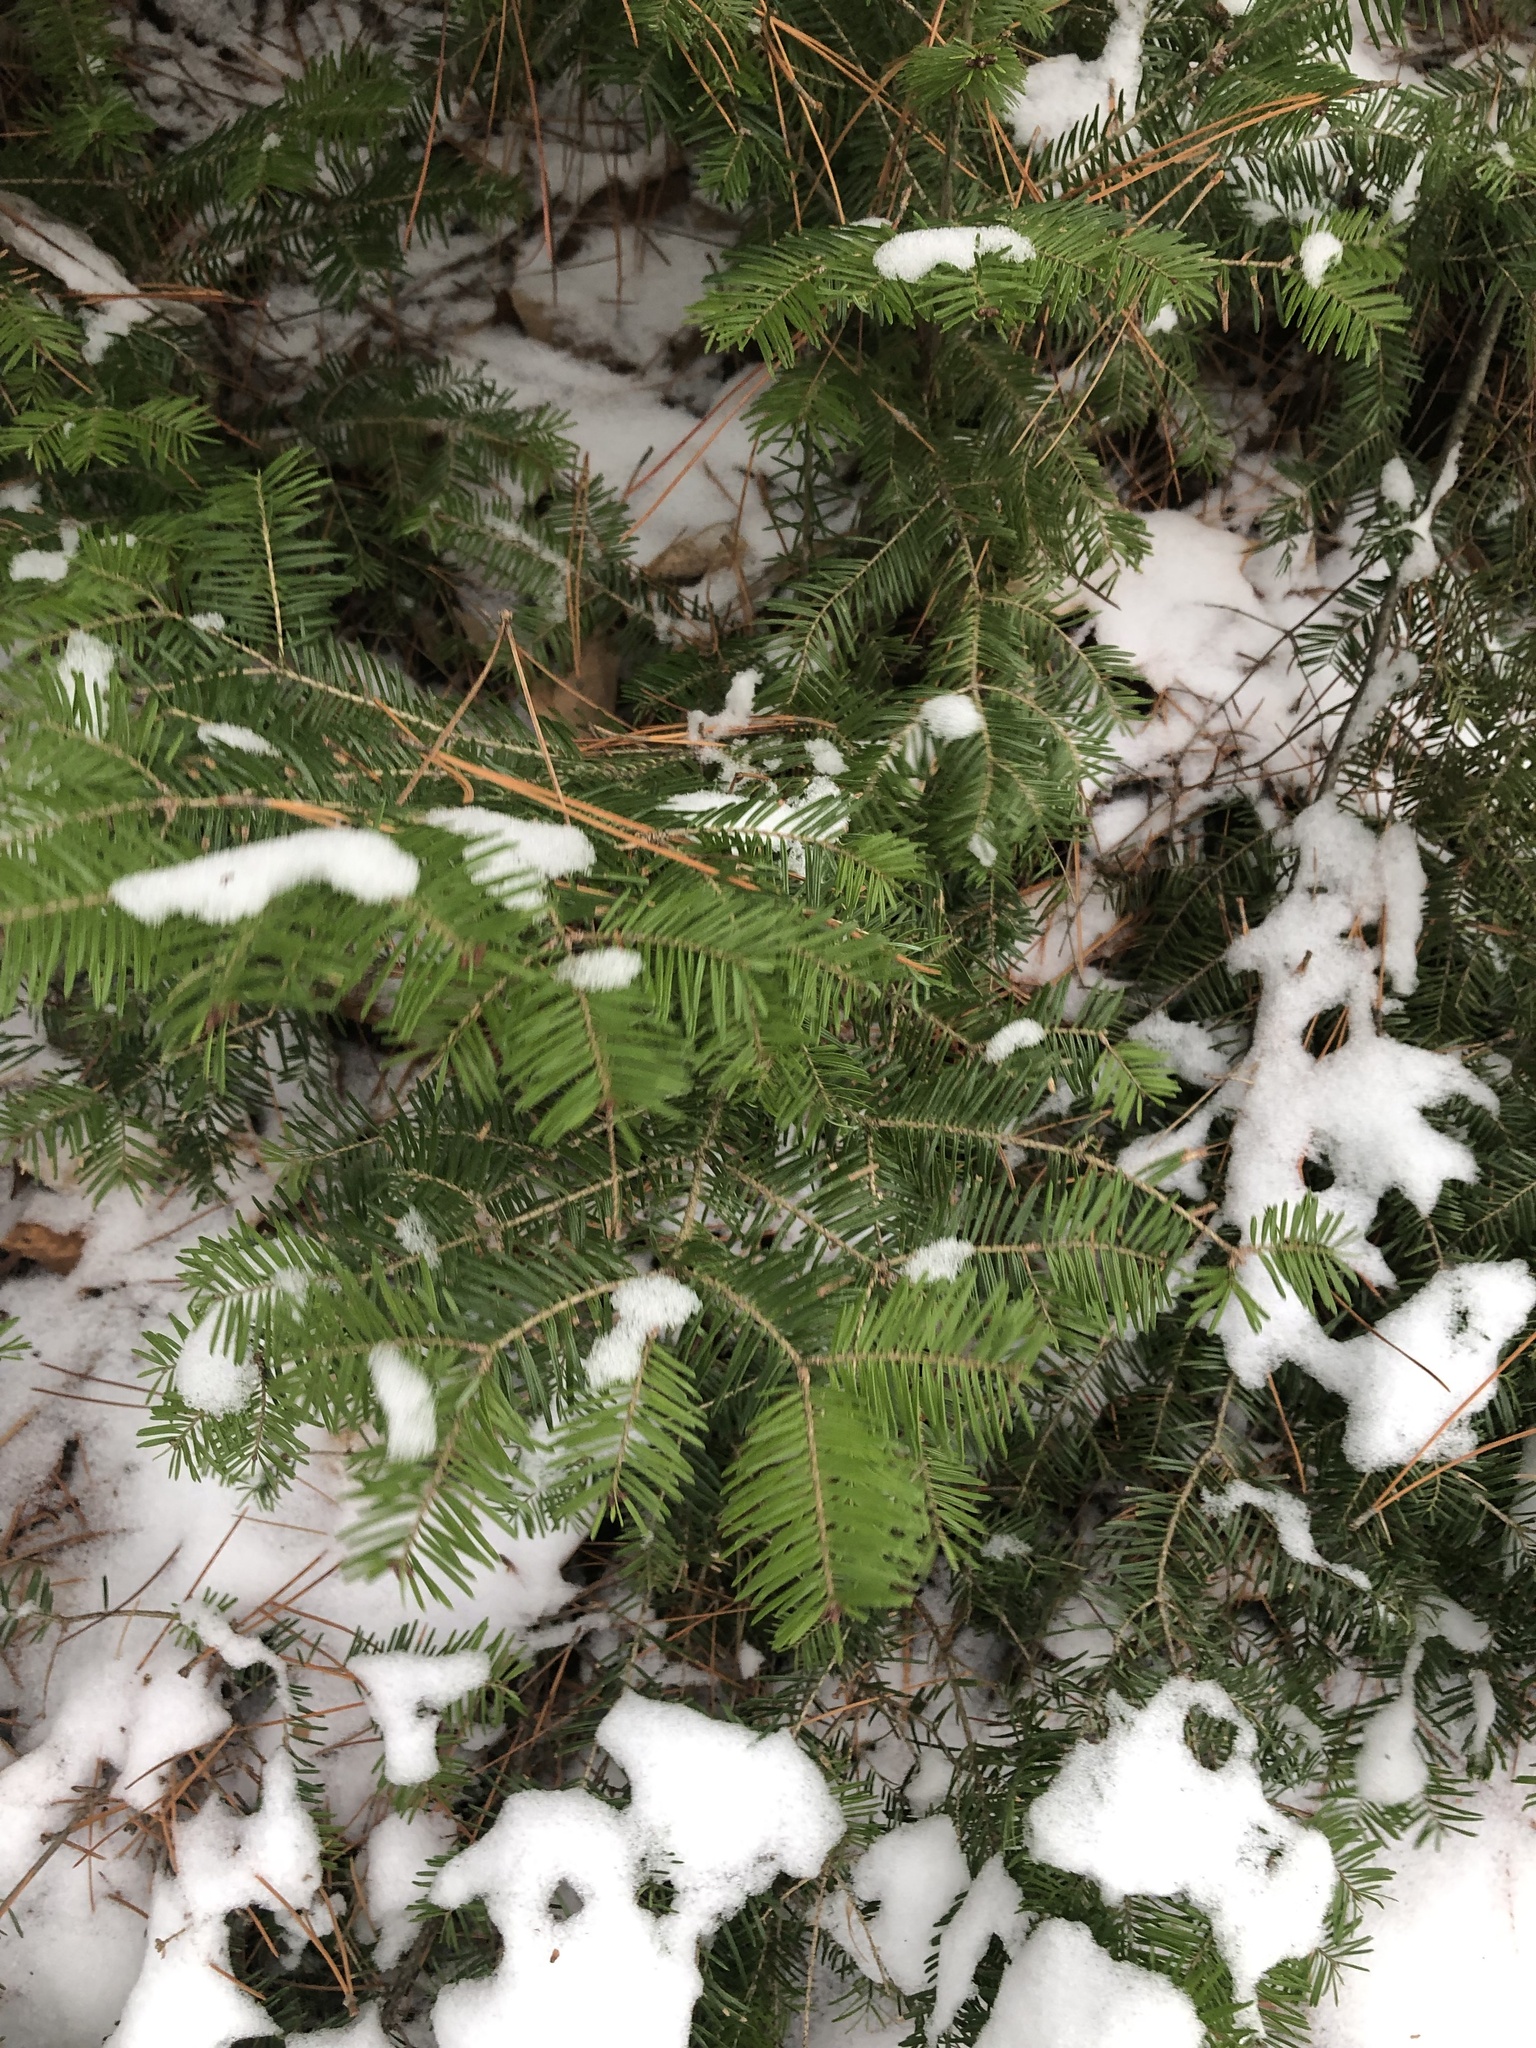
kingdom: Plantae
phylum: Tracheophyta
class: Pinopsida
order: Pinales
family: Pinaceae
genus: Abies
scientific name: Abies balsamea
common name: Balsam fir
